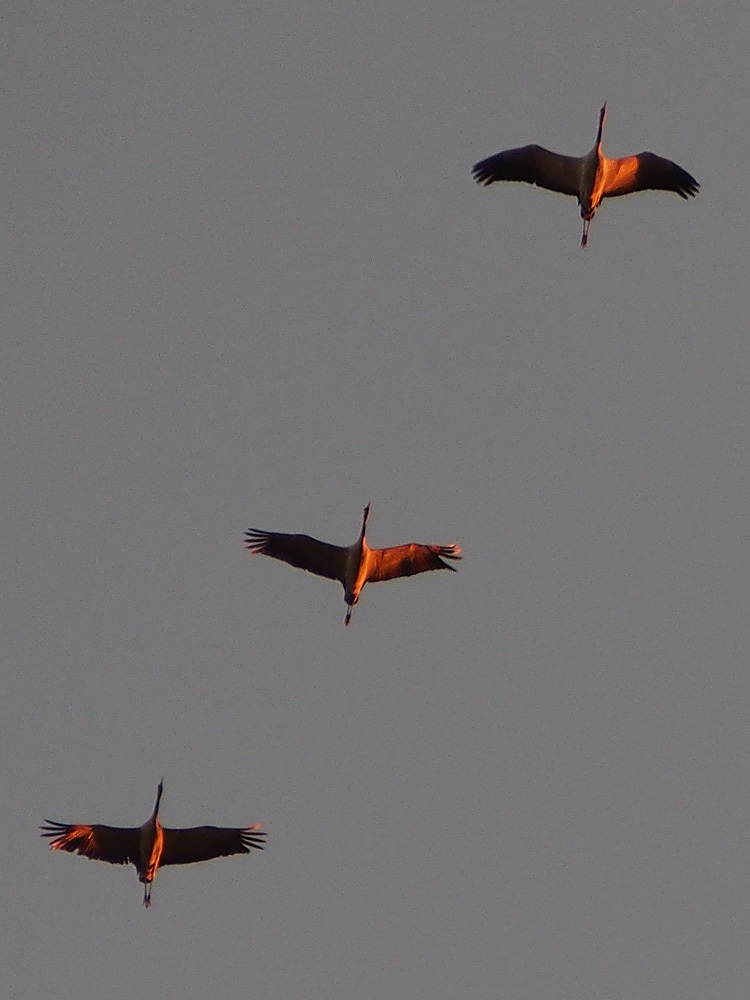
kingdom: Animalia
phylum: Chordata
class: Aves
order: Gruiformes
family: Gruidae
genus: Grus
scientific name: Grus grus
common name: Common crane
